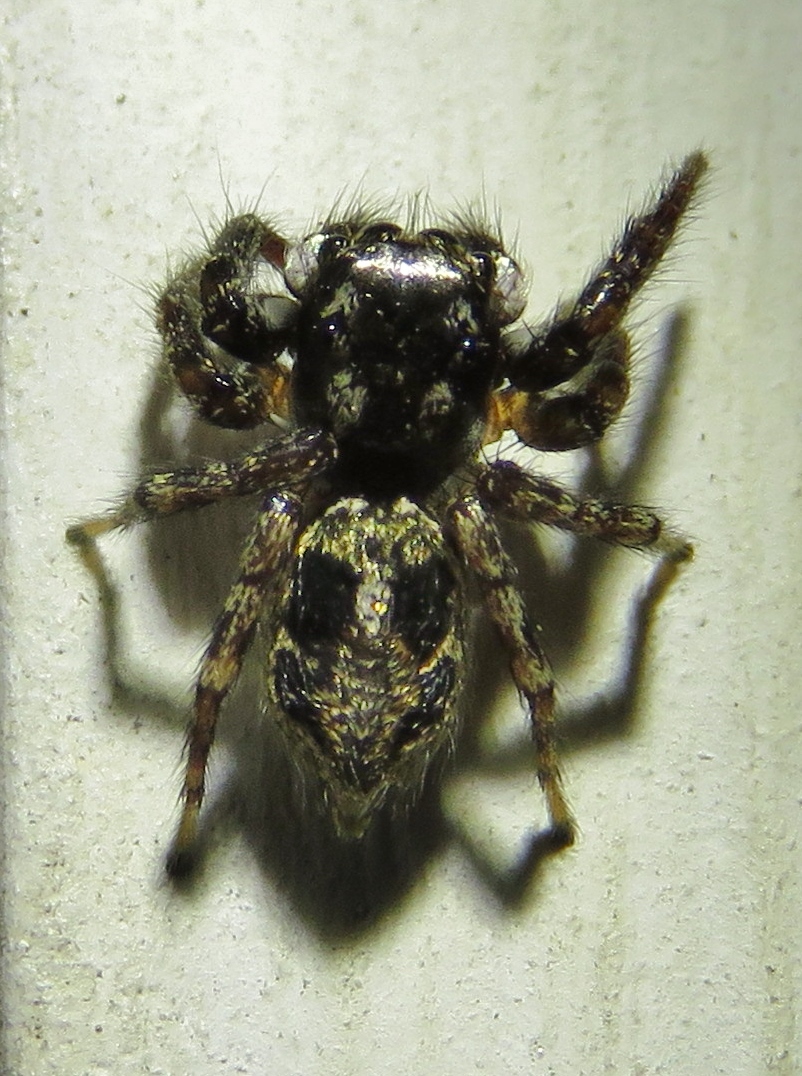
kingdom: Animalia
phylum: Arthropoda
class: Arachnida
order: Araneae
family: Salticidae
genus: Anasaitis
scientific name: Anasaitis canosa
